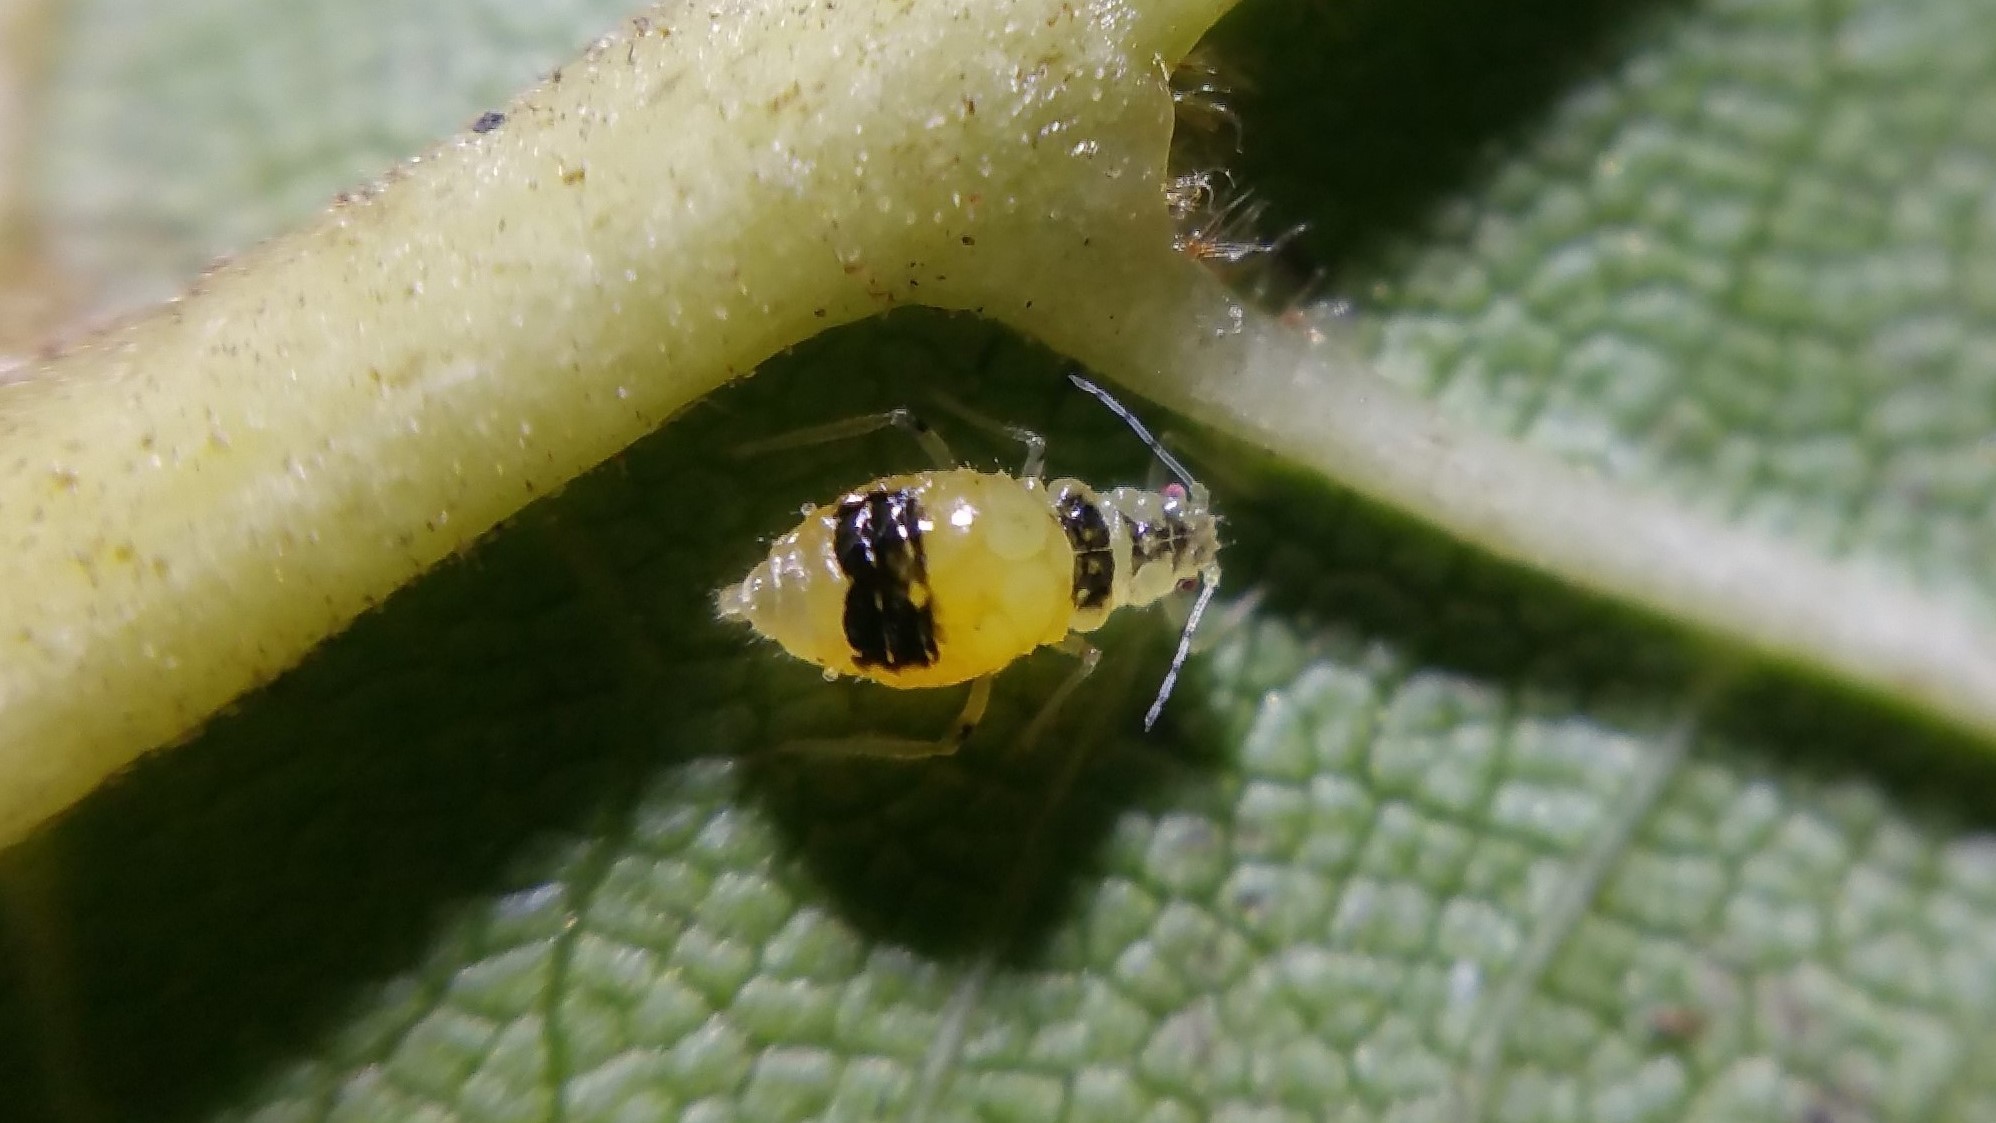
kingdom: Animalia
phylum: Arthropoda
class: Insecta
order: Hemiptera
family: Aphididae
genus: Chromaphis
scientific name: Chromaphis juglandicola
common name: Walnut aphid
